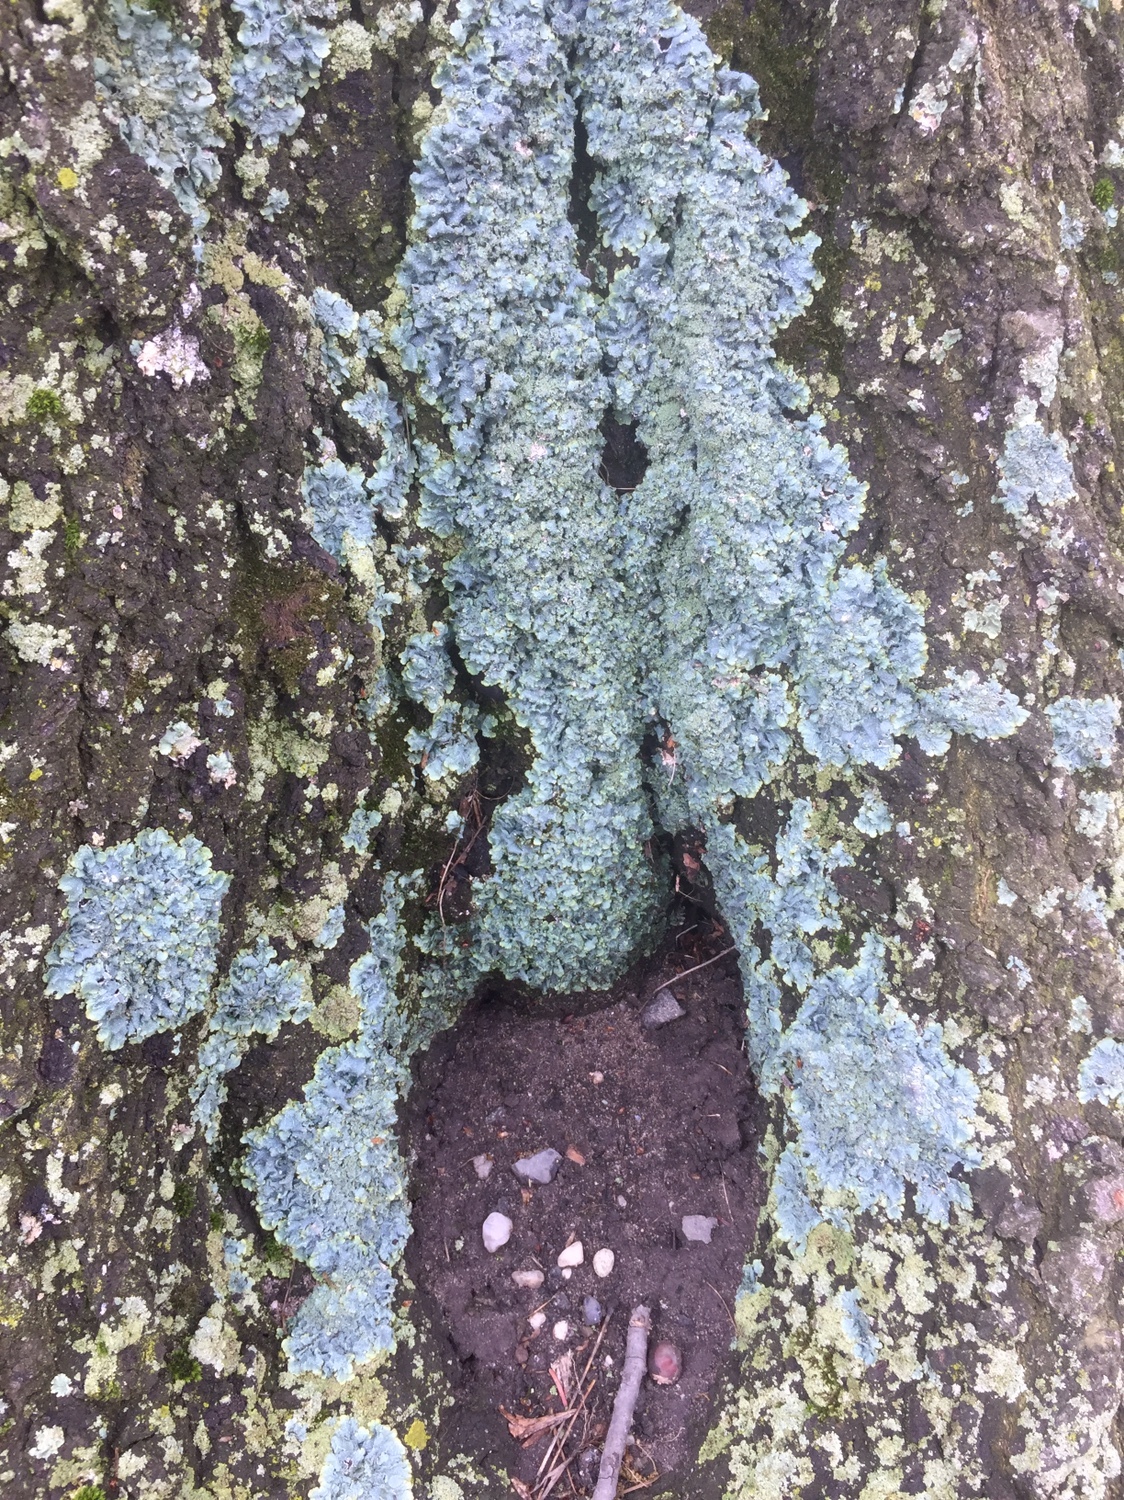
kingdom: Fungi
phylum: Ascomycota
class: Lecanoromycetes
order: Lecanorales
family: Parmeliaceae
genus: Punctelia
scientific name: Punctelia rudecta
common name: Rough speckled shield lichen
